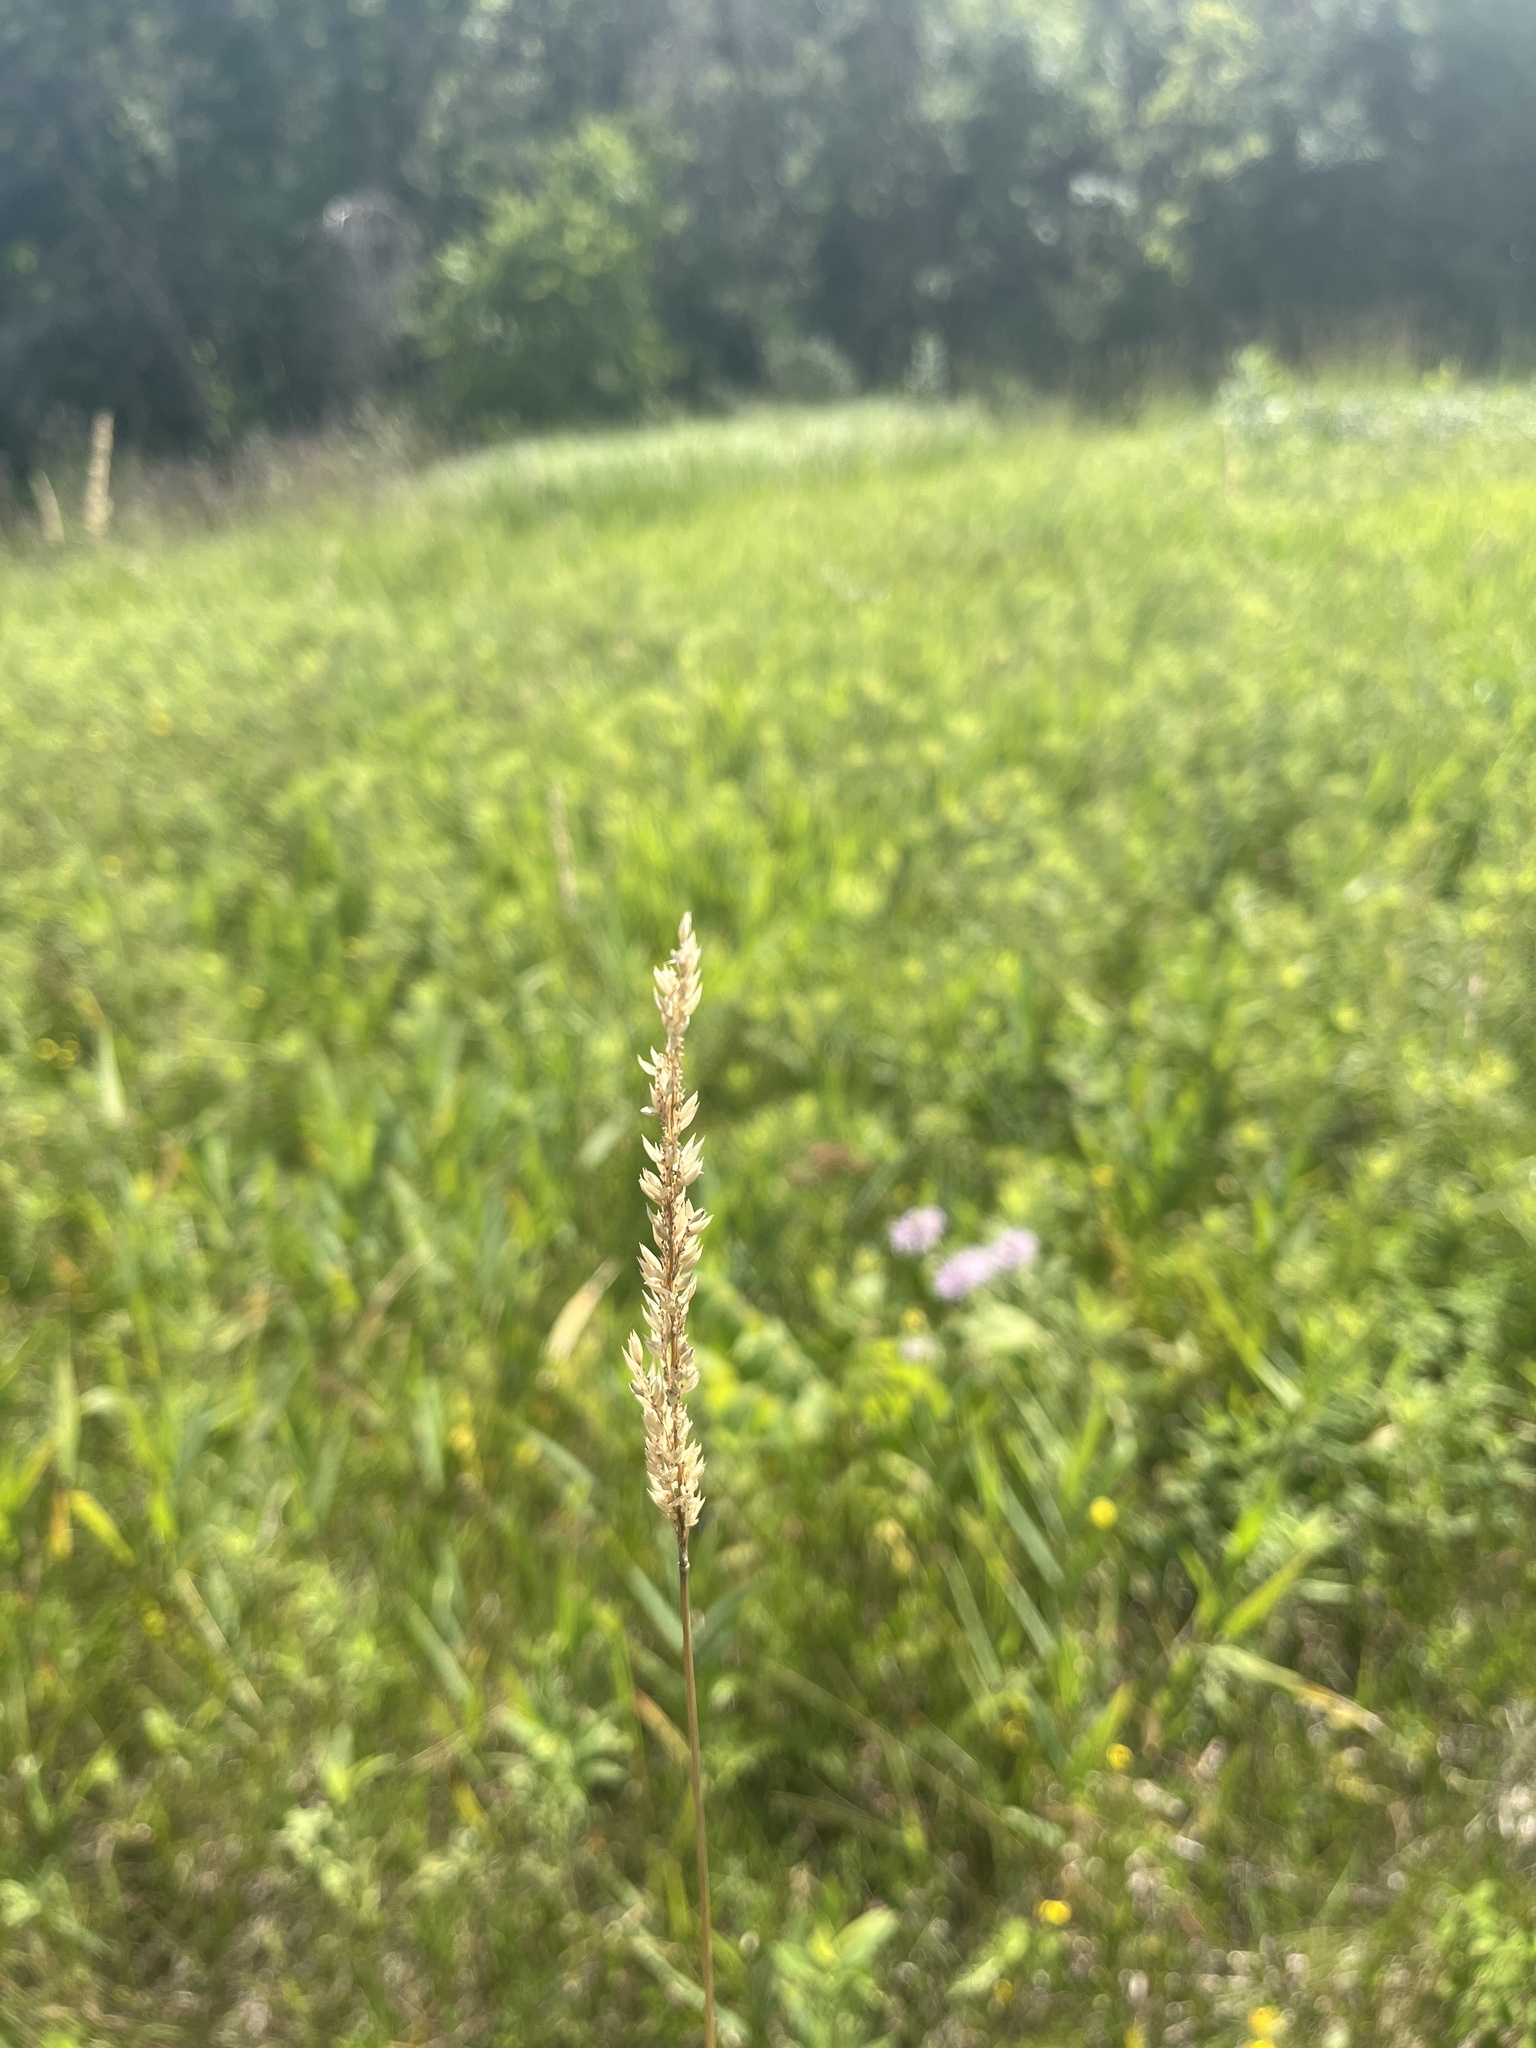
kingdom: Plantae
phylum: Tracheophyta
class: Liliopsida
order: Poales
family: Poaceae
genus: Phalaris
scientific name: Phalaris arundinacea
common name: Reed canary-grass
